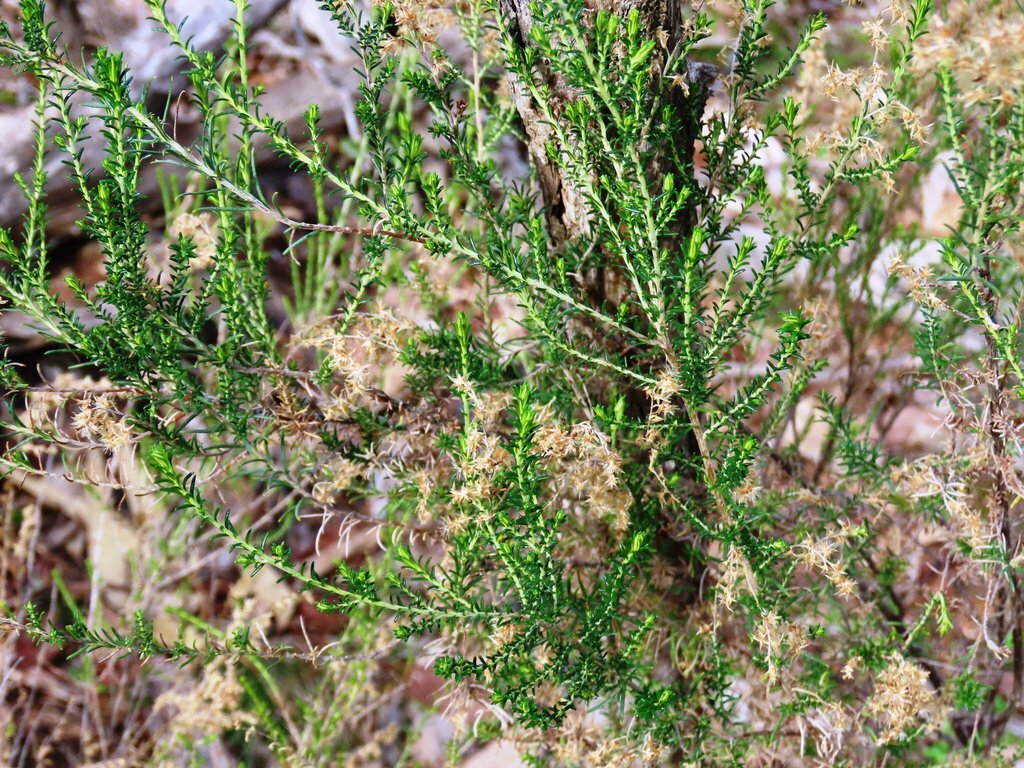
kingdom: Plantae
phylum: Tracheophyta
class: Magnoliopsida
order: Asterales
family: Asteraceae
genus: Cassinia
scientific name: Cassinia sifton
